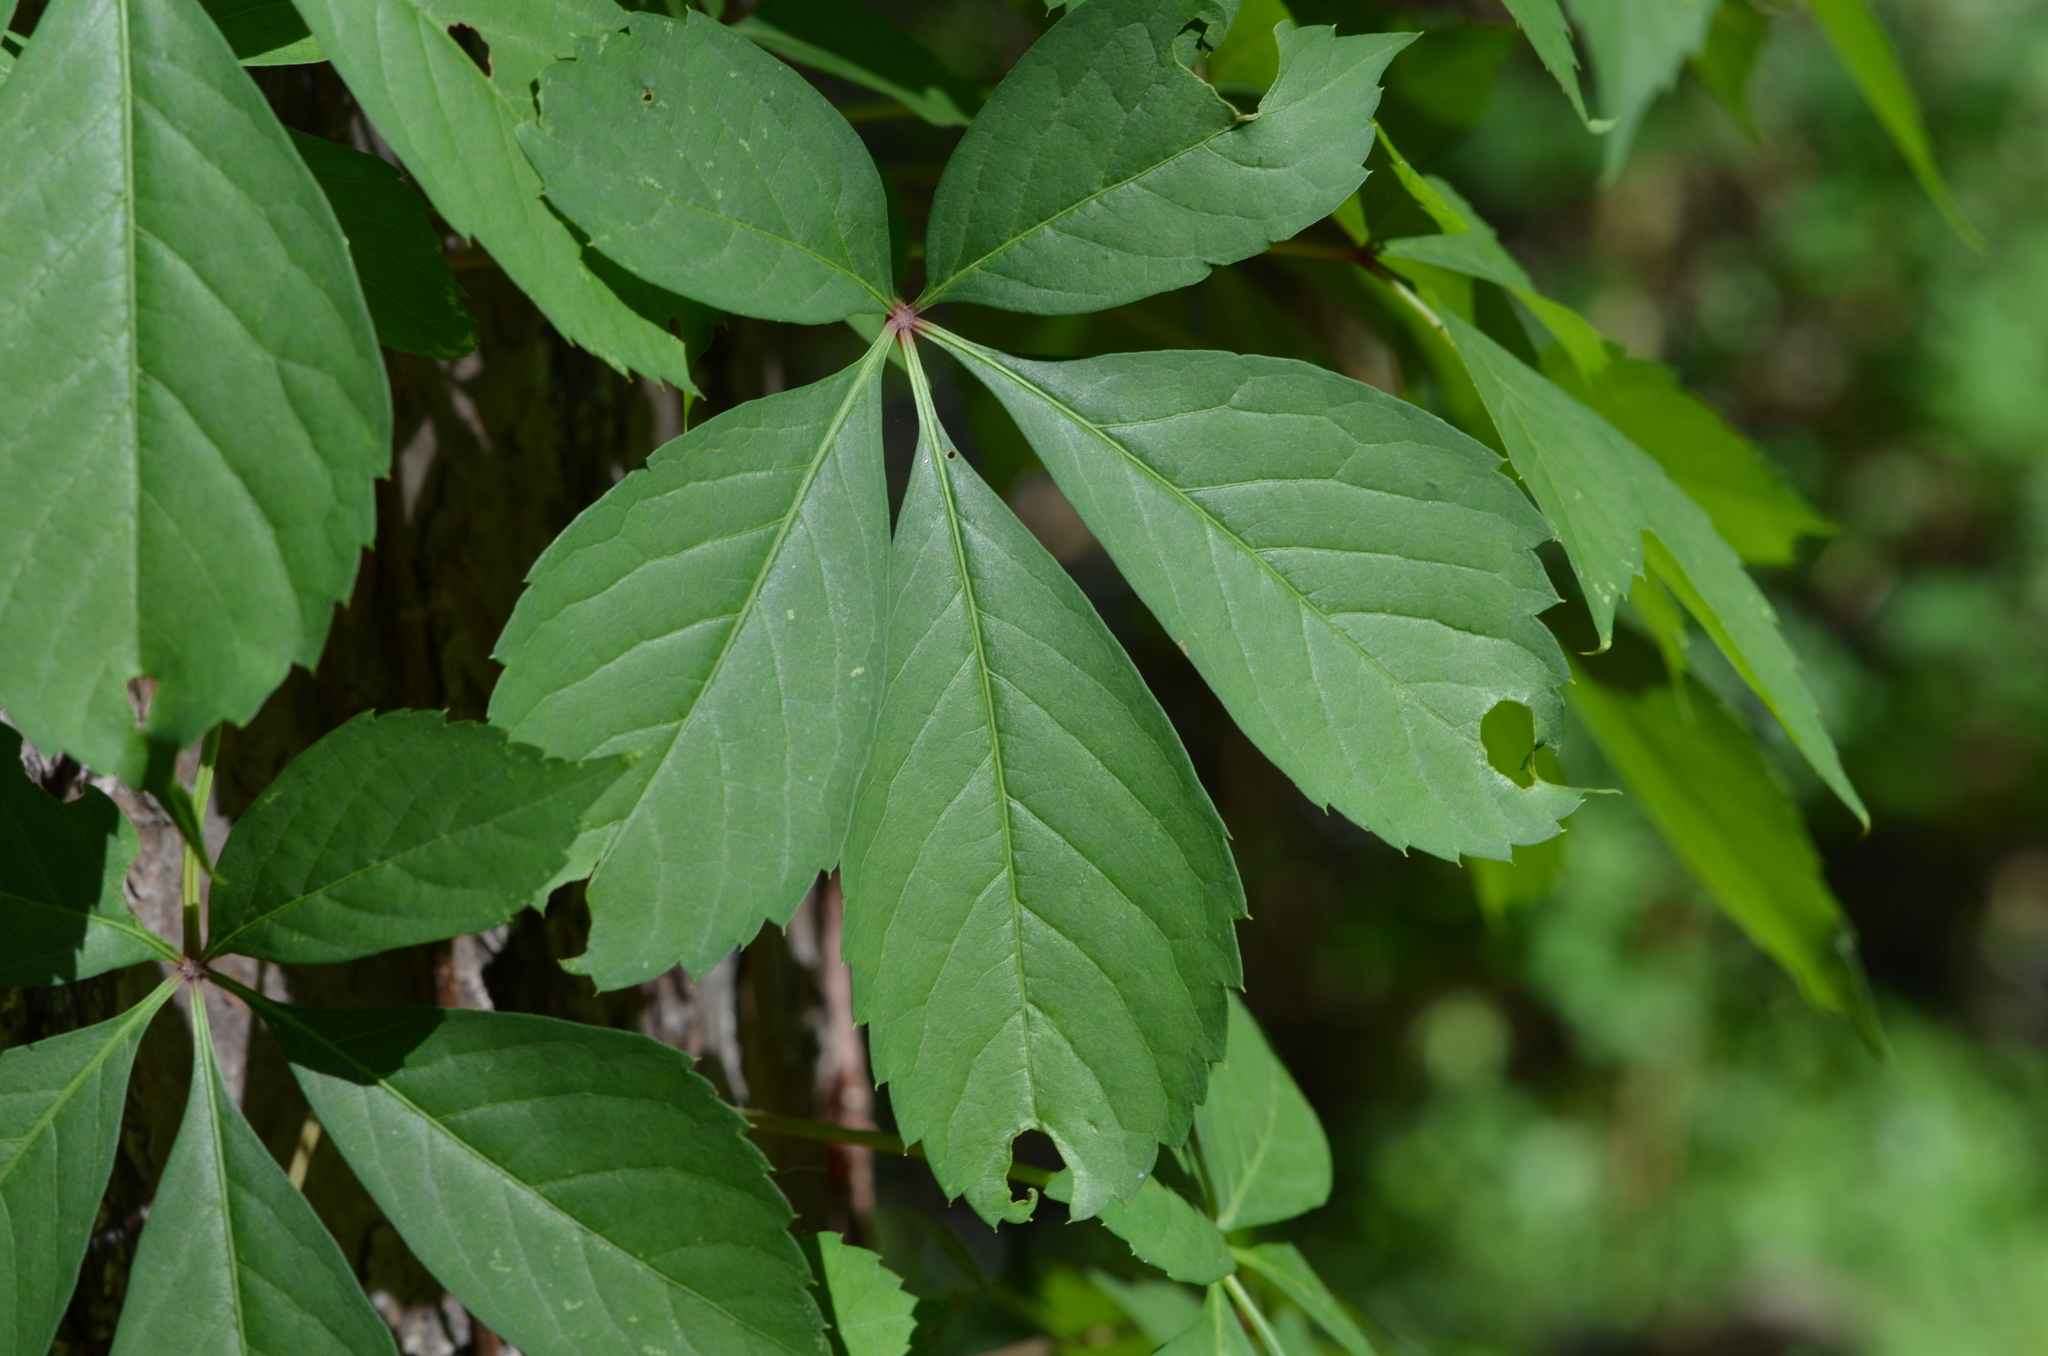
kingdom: Plantae
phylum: Tracheophyta
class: Magnoliopsida
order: Vitales
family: Vitaceae
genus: Parthenocissus
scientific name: Parthenocissus quinquefolia
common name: Virginia-creeper
